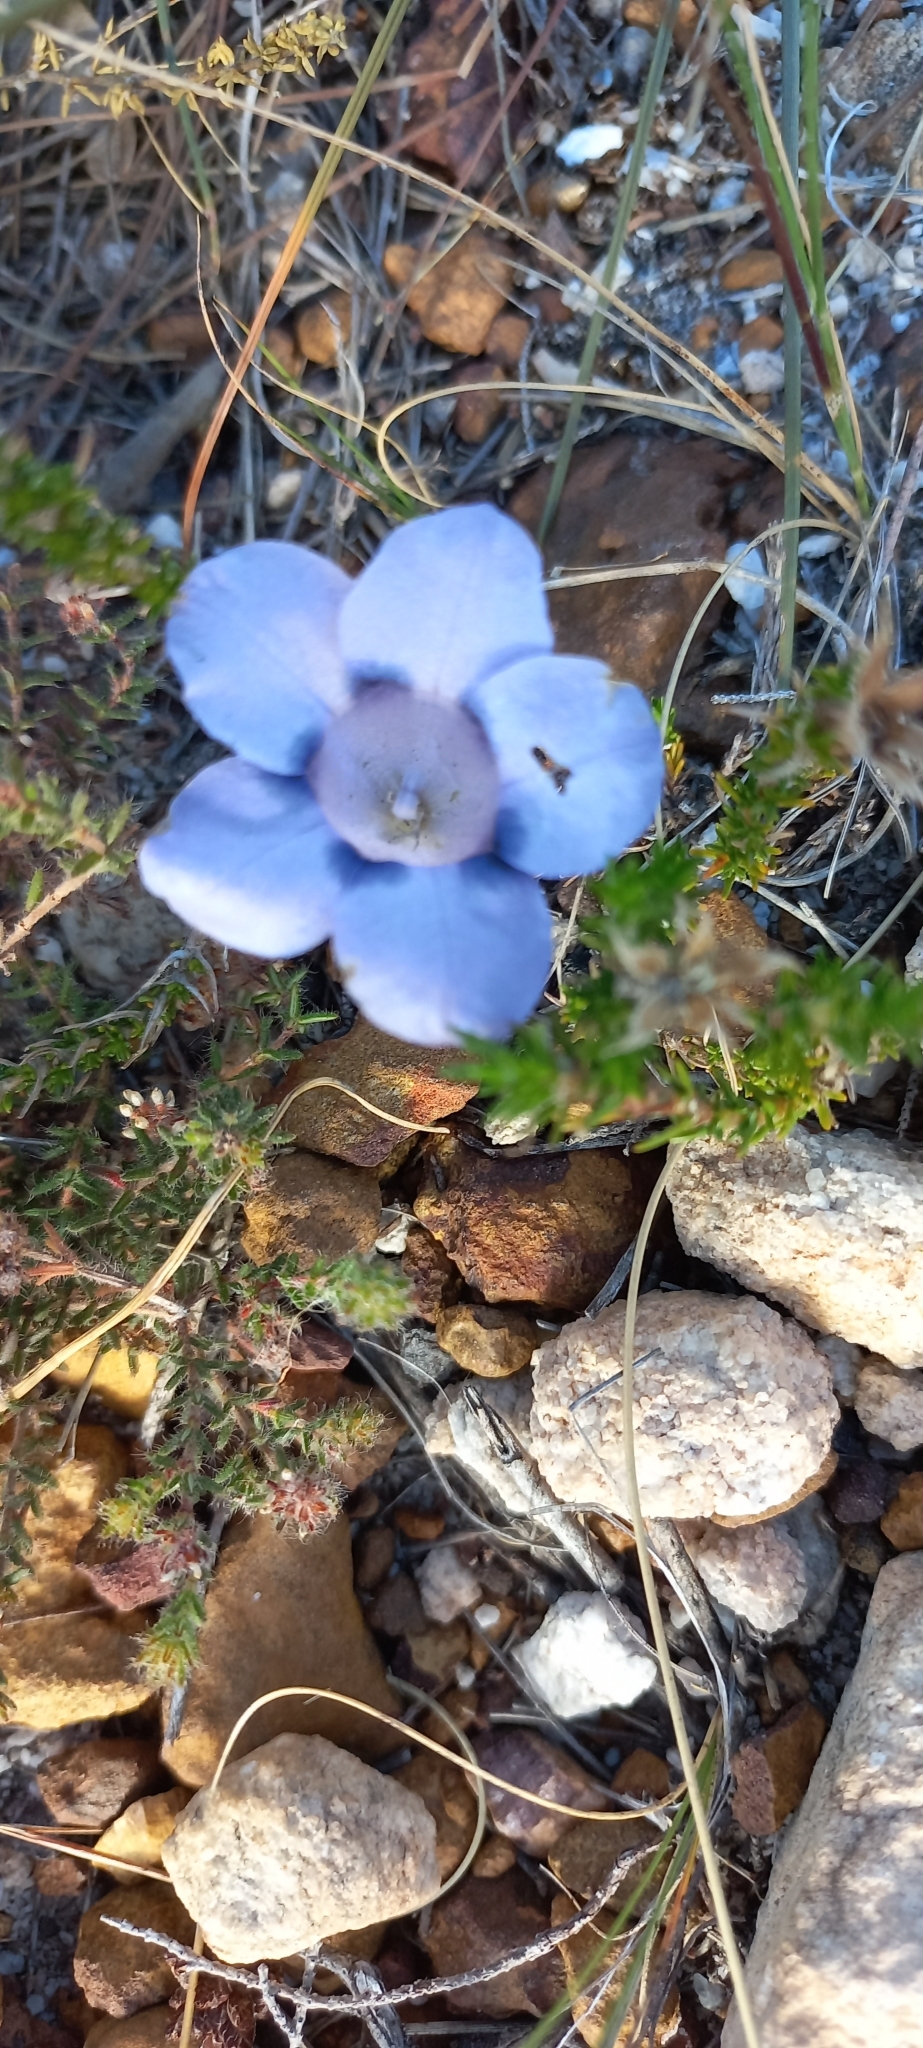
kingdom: Plantae
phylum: Tracheophyta
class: Magnoliopsida
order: Asterales
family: Campanulaceae
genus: Roella
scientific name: Roella maculata
